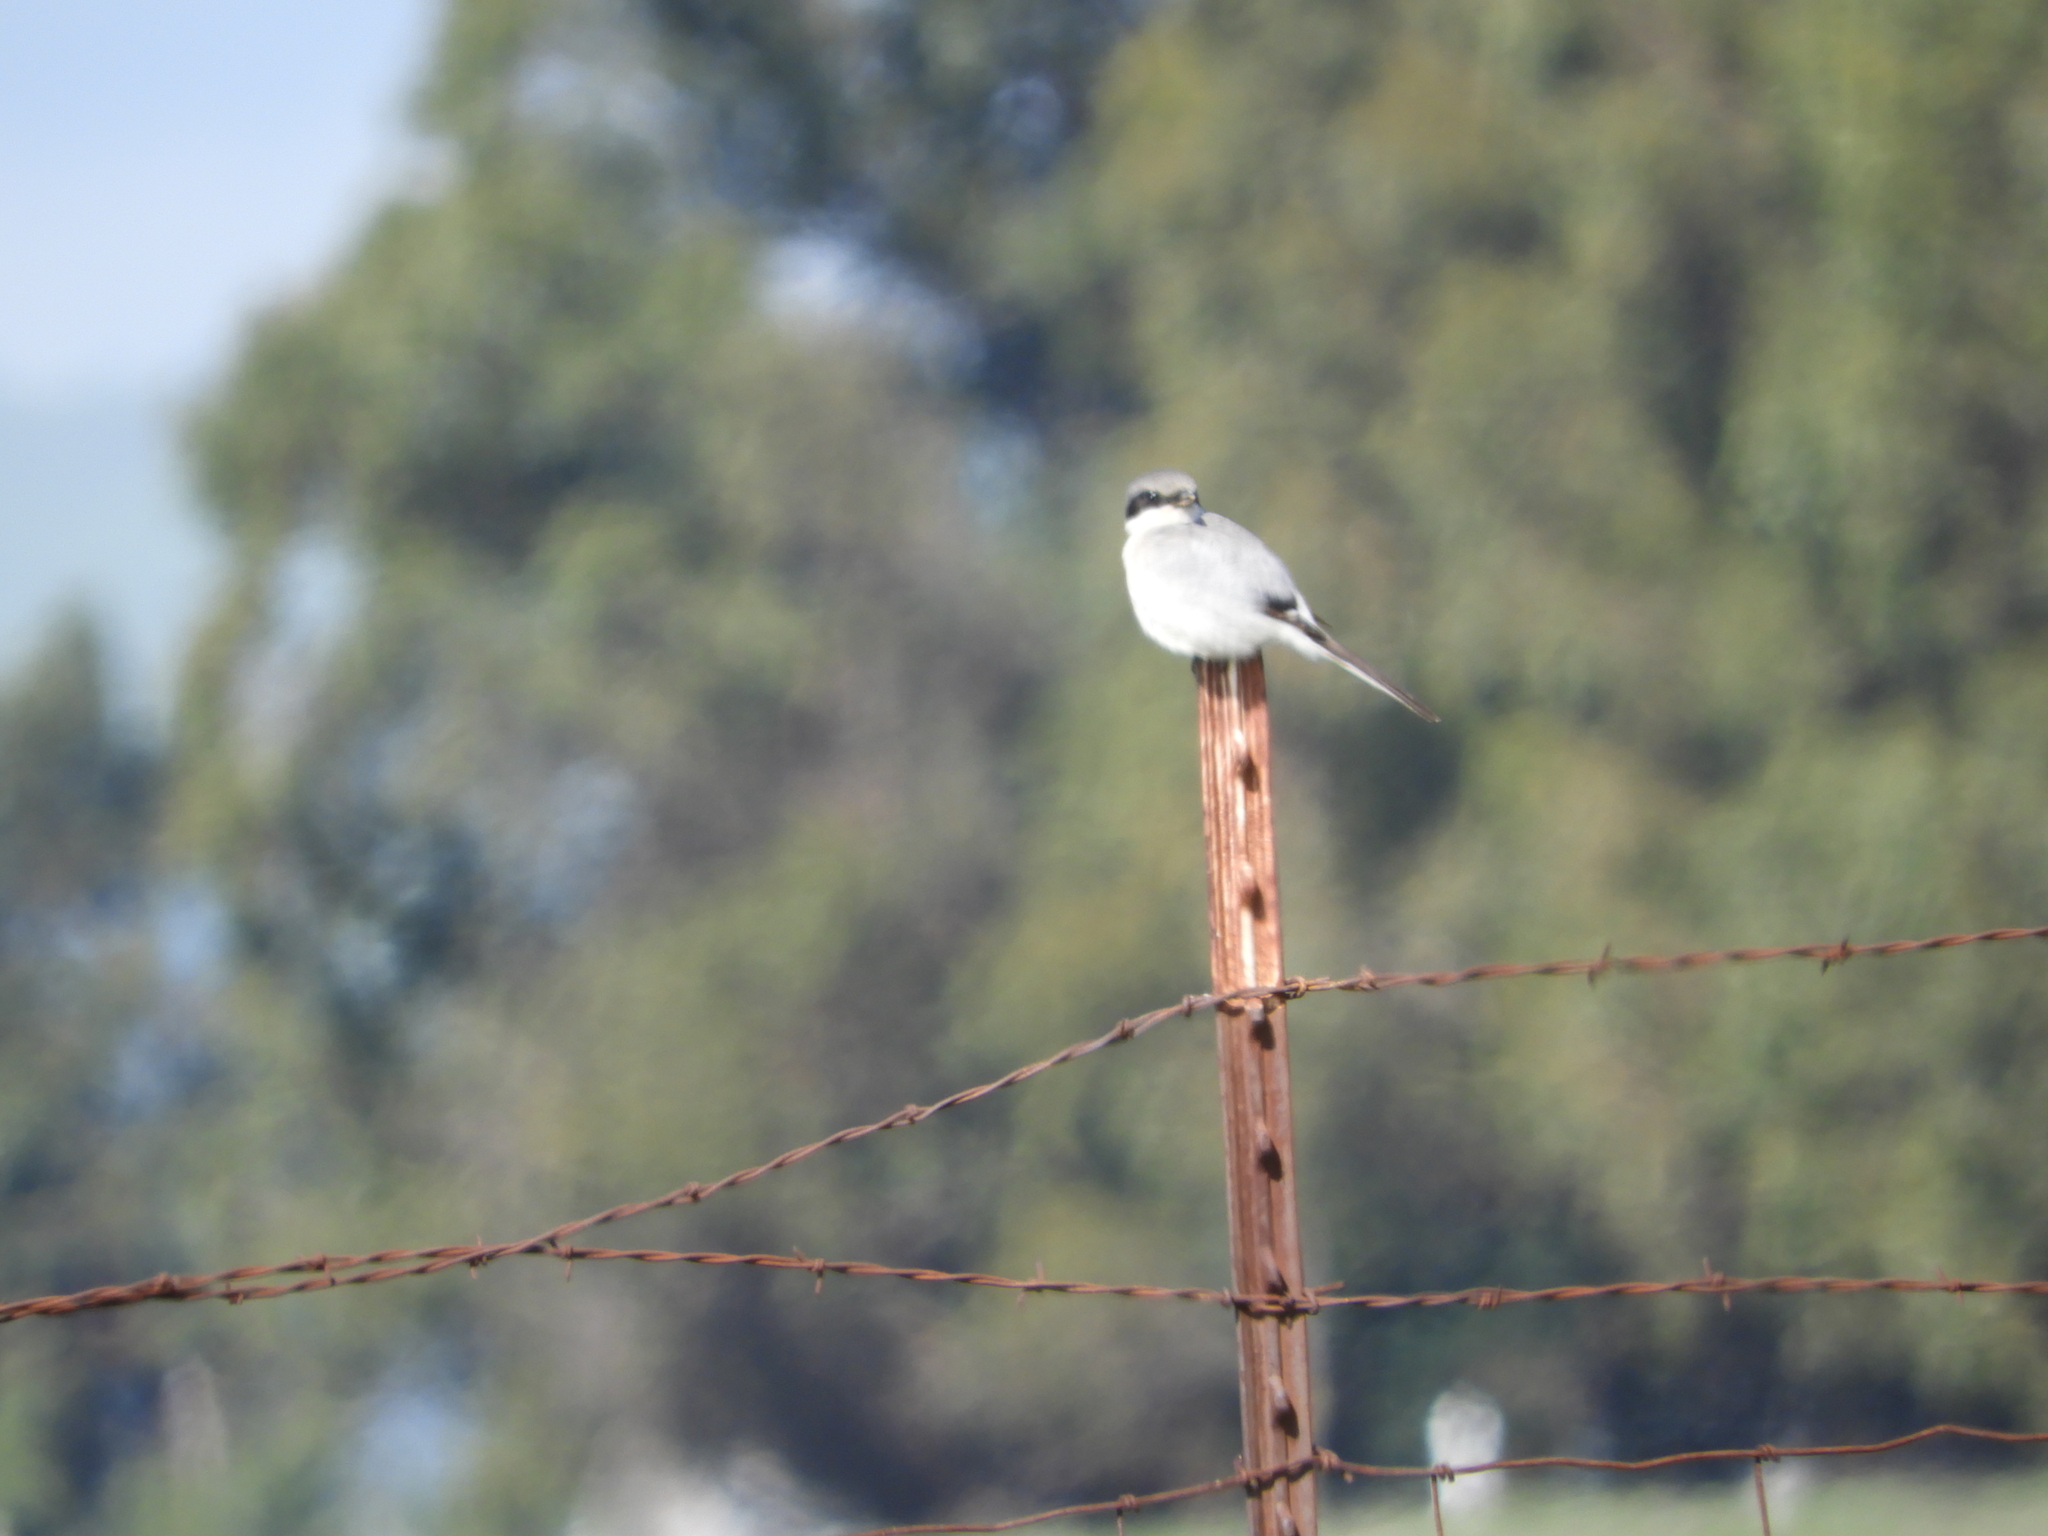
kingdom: Animalia
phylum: Chordata
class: Aves
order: Passeriformes
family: Laniidae
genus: Lanius
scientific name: Lanius ludovicianus
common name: Loggerhead shrike
